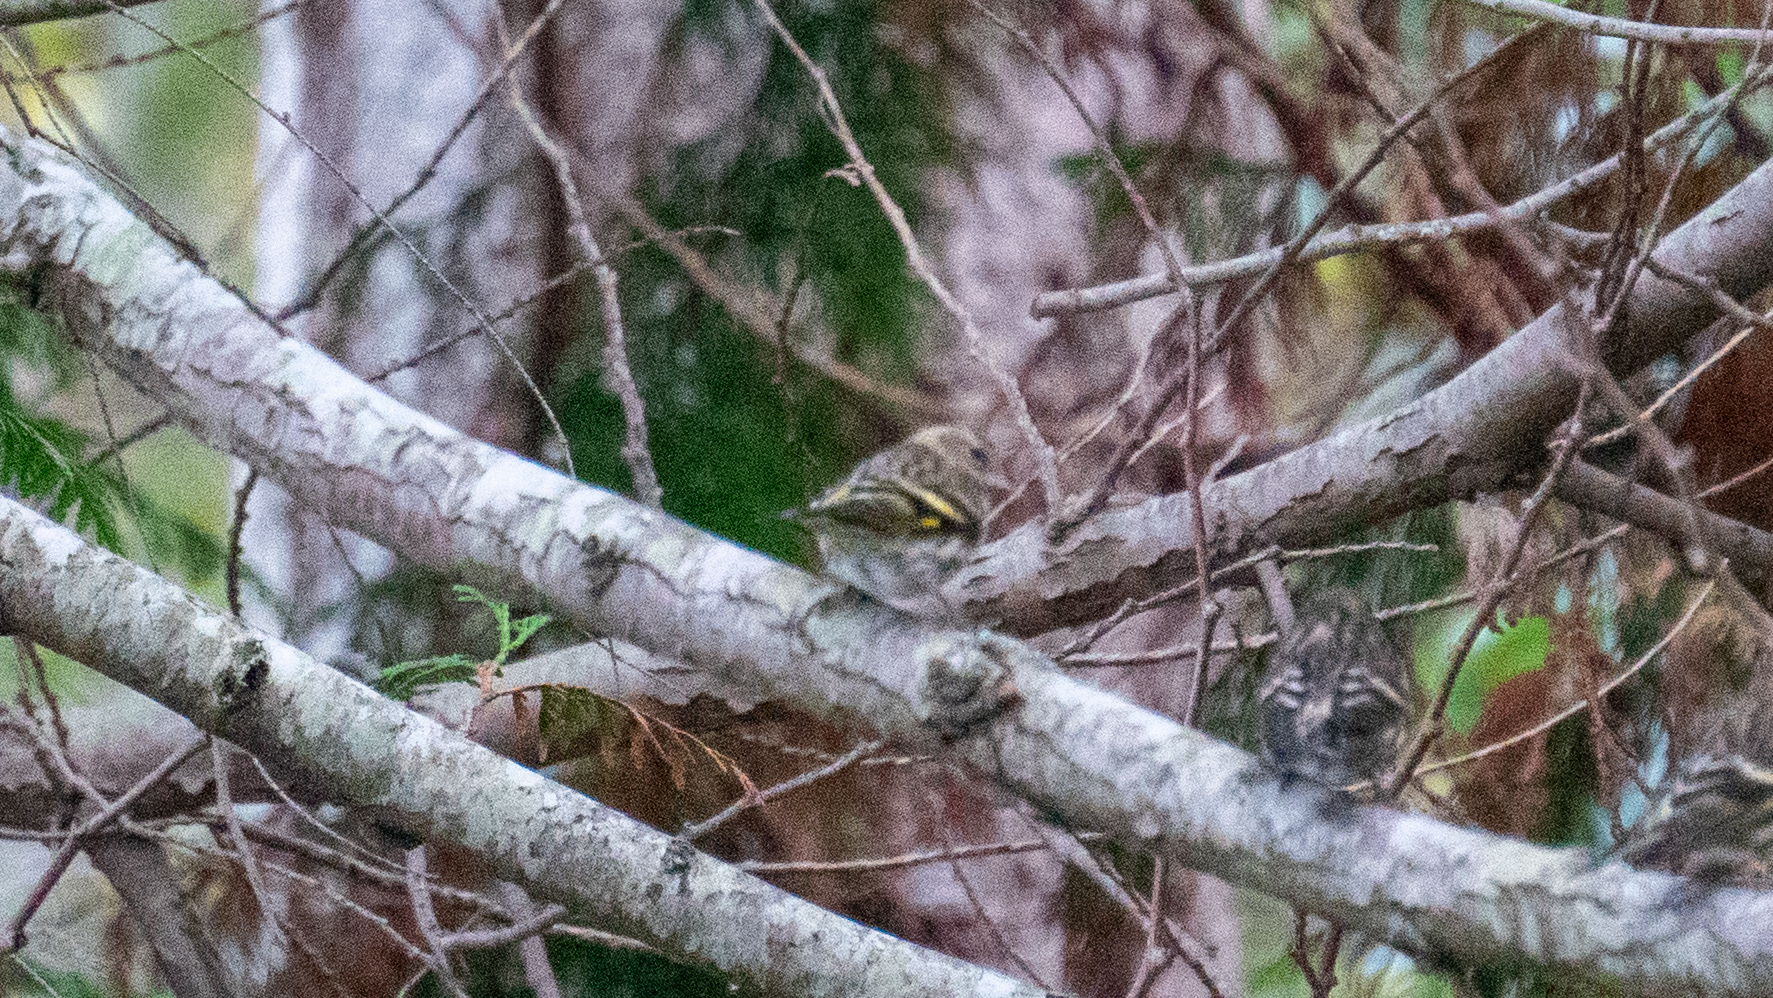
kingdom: Animalia
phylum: Chordata
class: Aves
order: Passeriformes
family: Fringillidae
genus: Spinus
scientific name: Spinus pinus
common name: Pine siskin
